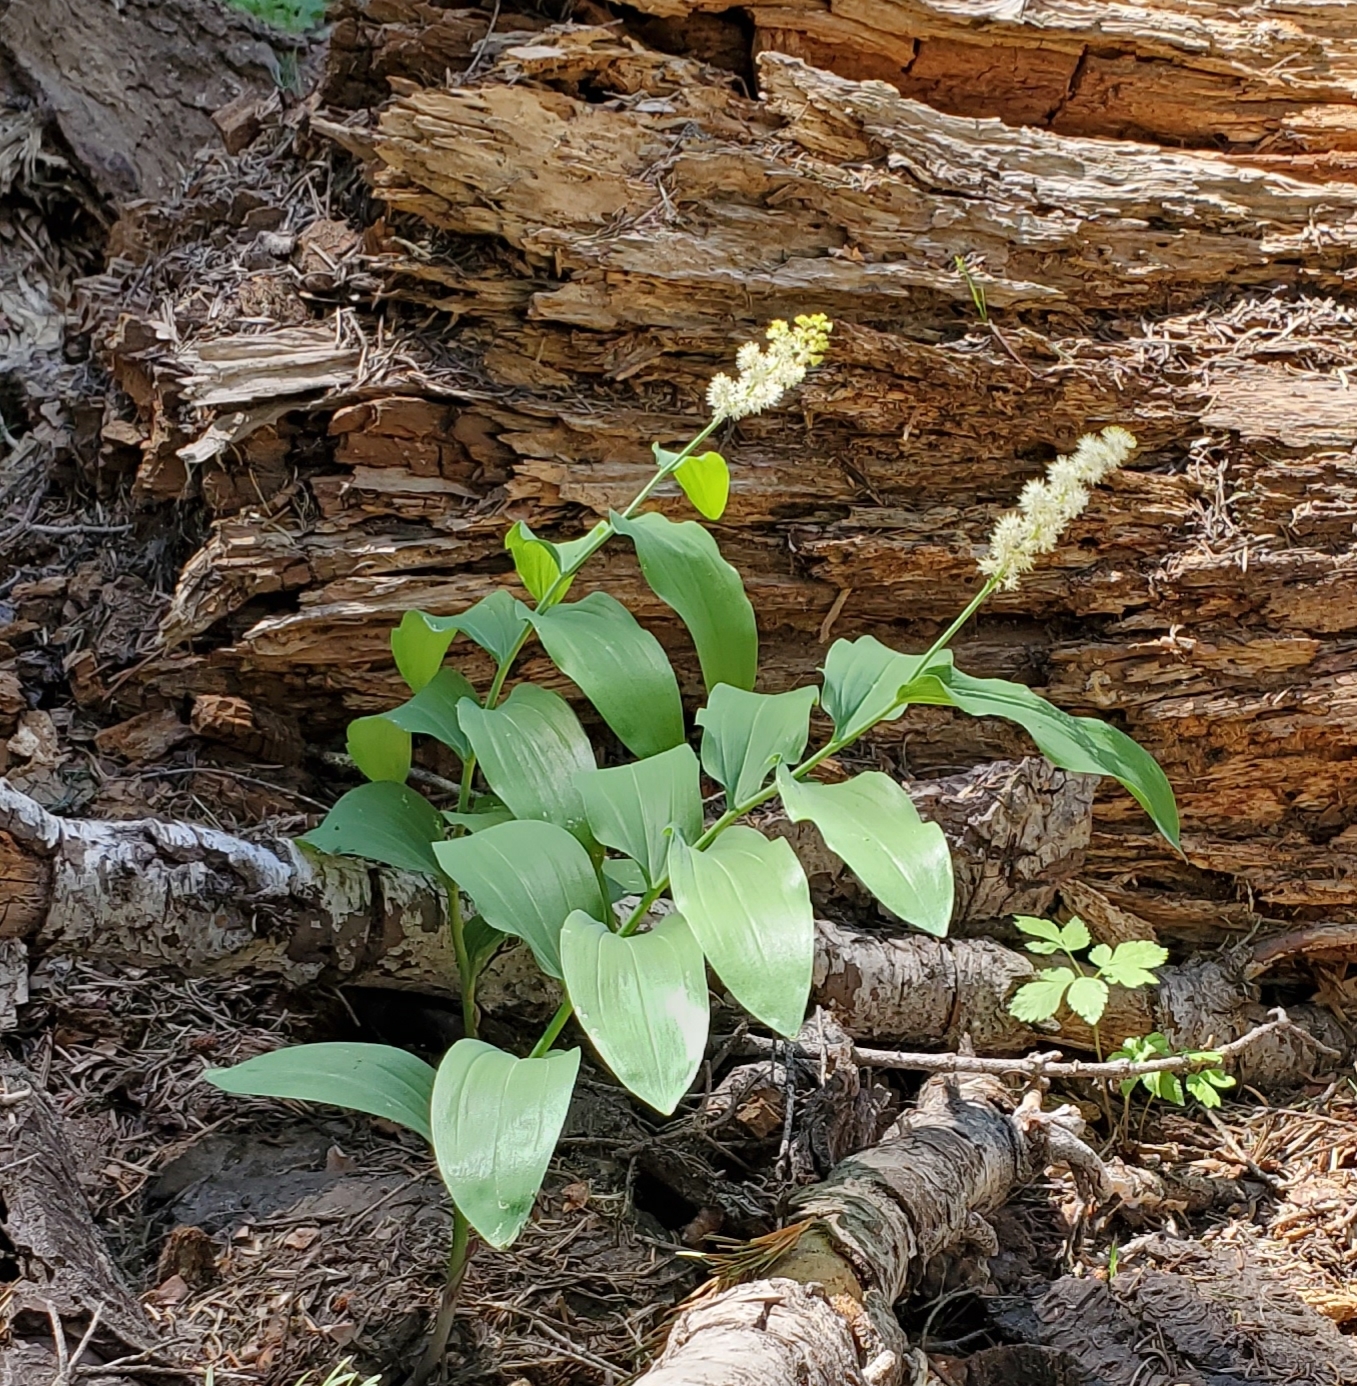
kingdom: Plantae
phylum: Tracheophyta
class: Liliopsida
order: Asparagales
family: Asparagaceae
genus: Maianthemum
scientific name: Maianthemum racemosum
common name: False spikenard
